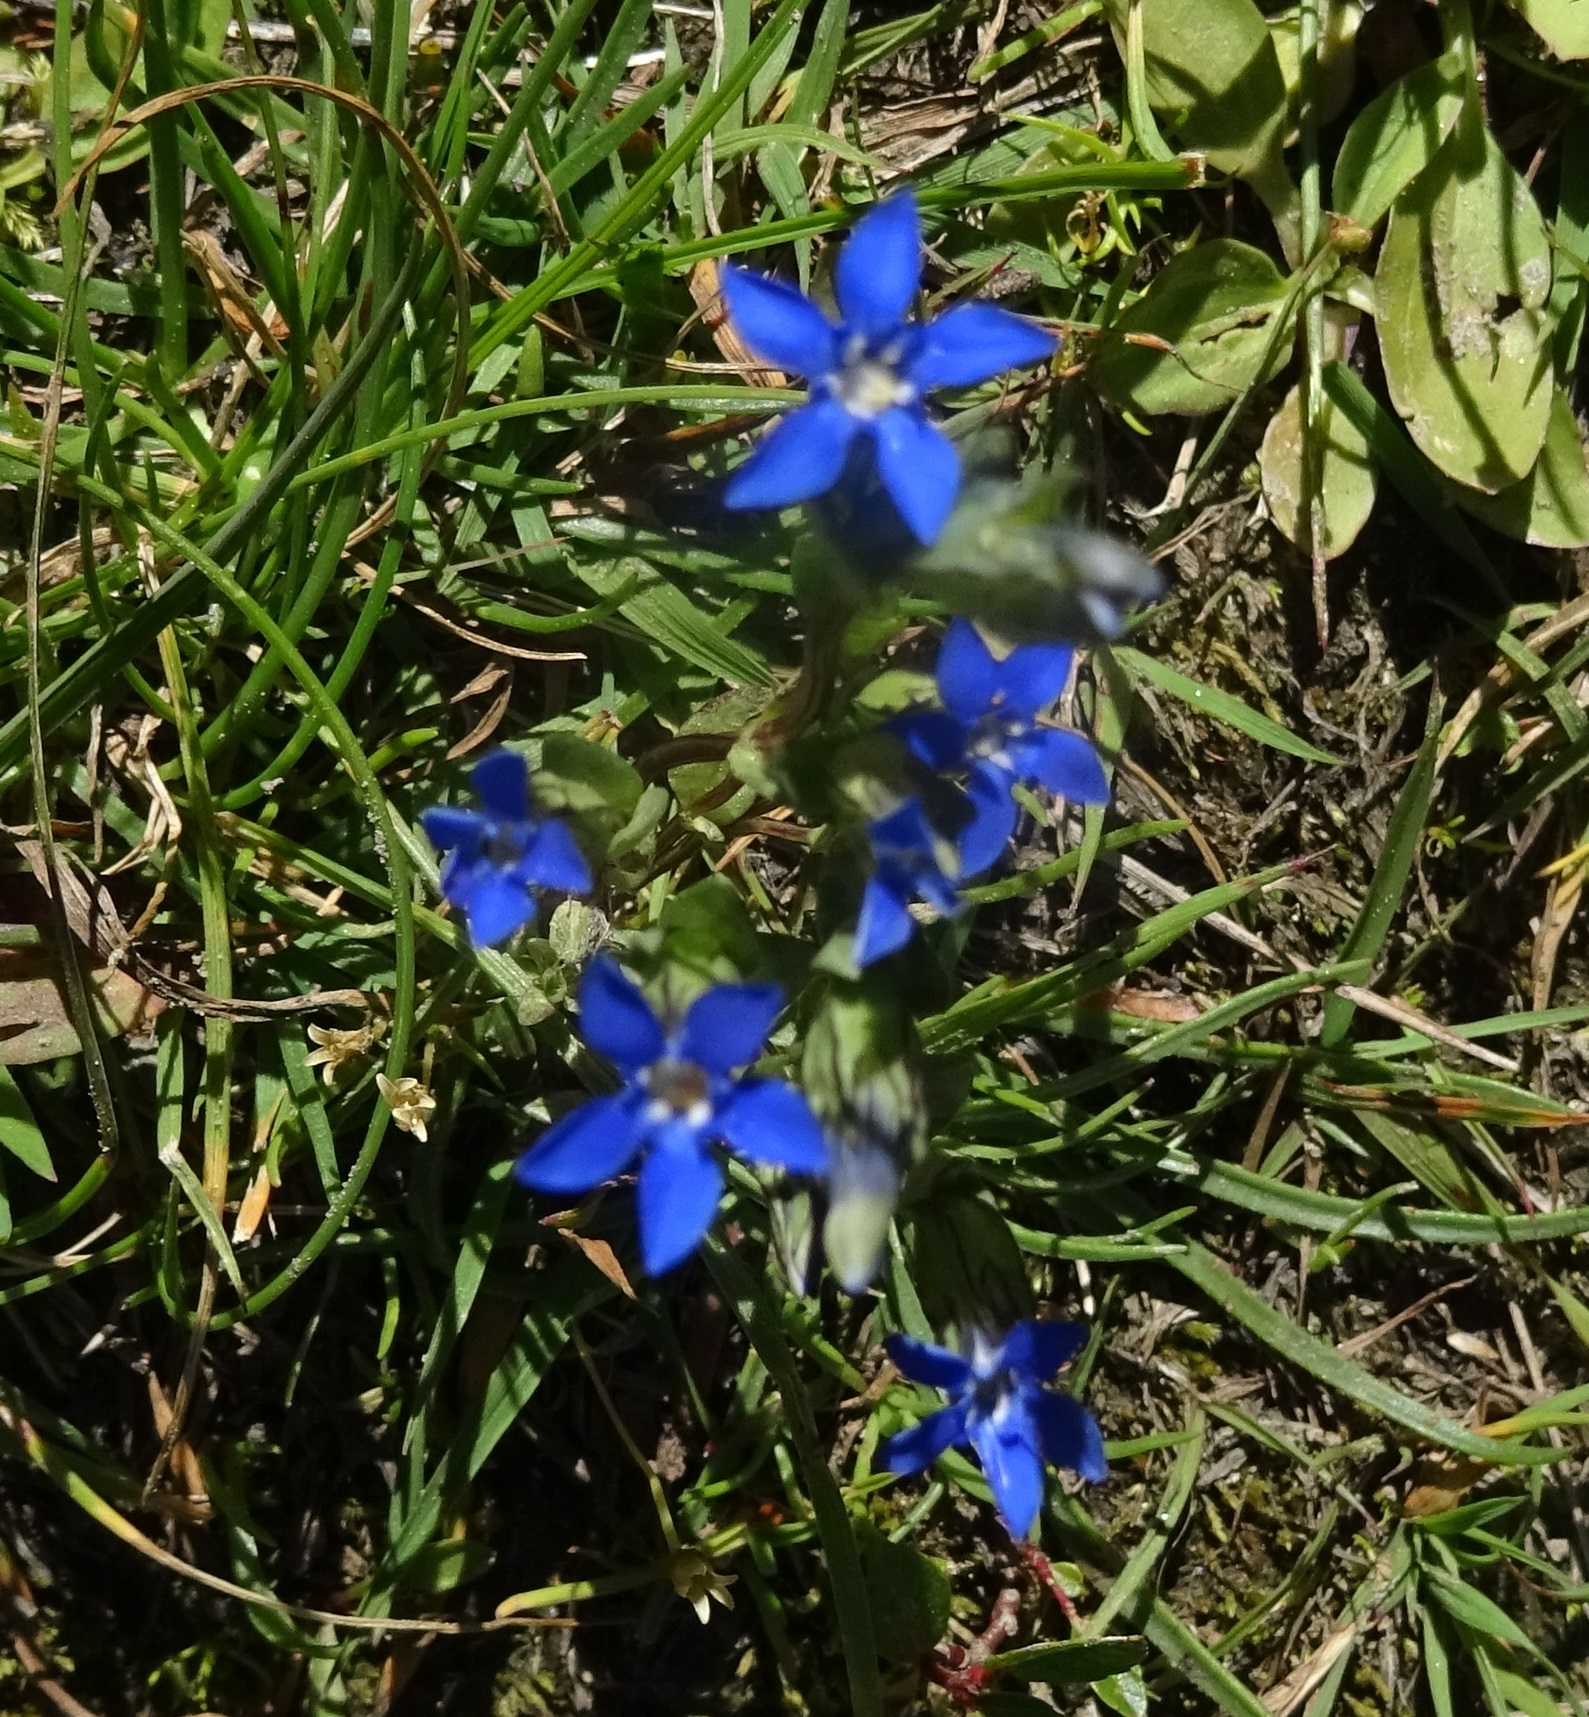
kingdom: Plantae
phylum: Tracheophyta
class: Magnoliopsida
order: Gentianales
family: Gentianaceae
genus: Gentiana
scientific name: Gentiana nivalis
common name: Alpine gentian
